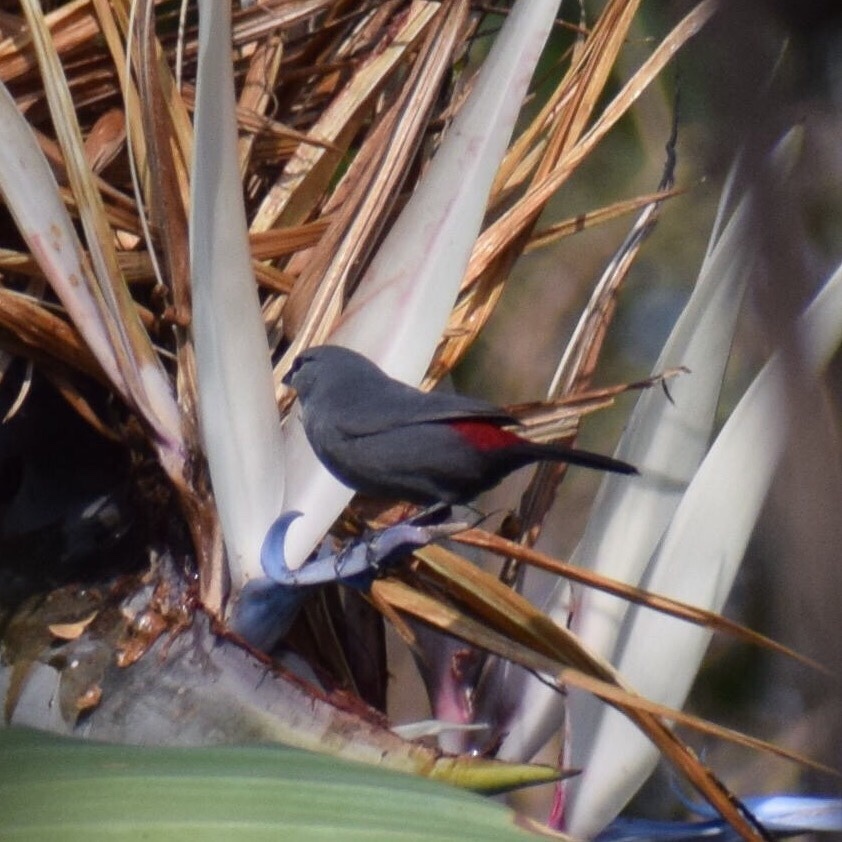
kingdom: Animalia
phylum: Chordata
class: Aves
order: Passeriformes
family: Estrildidae
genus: Estrilda
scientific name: Estrilda perreini
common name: Grey waxbill
